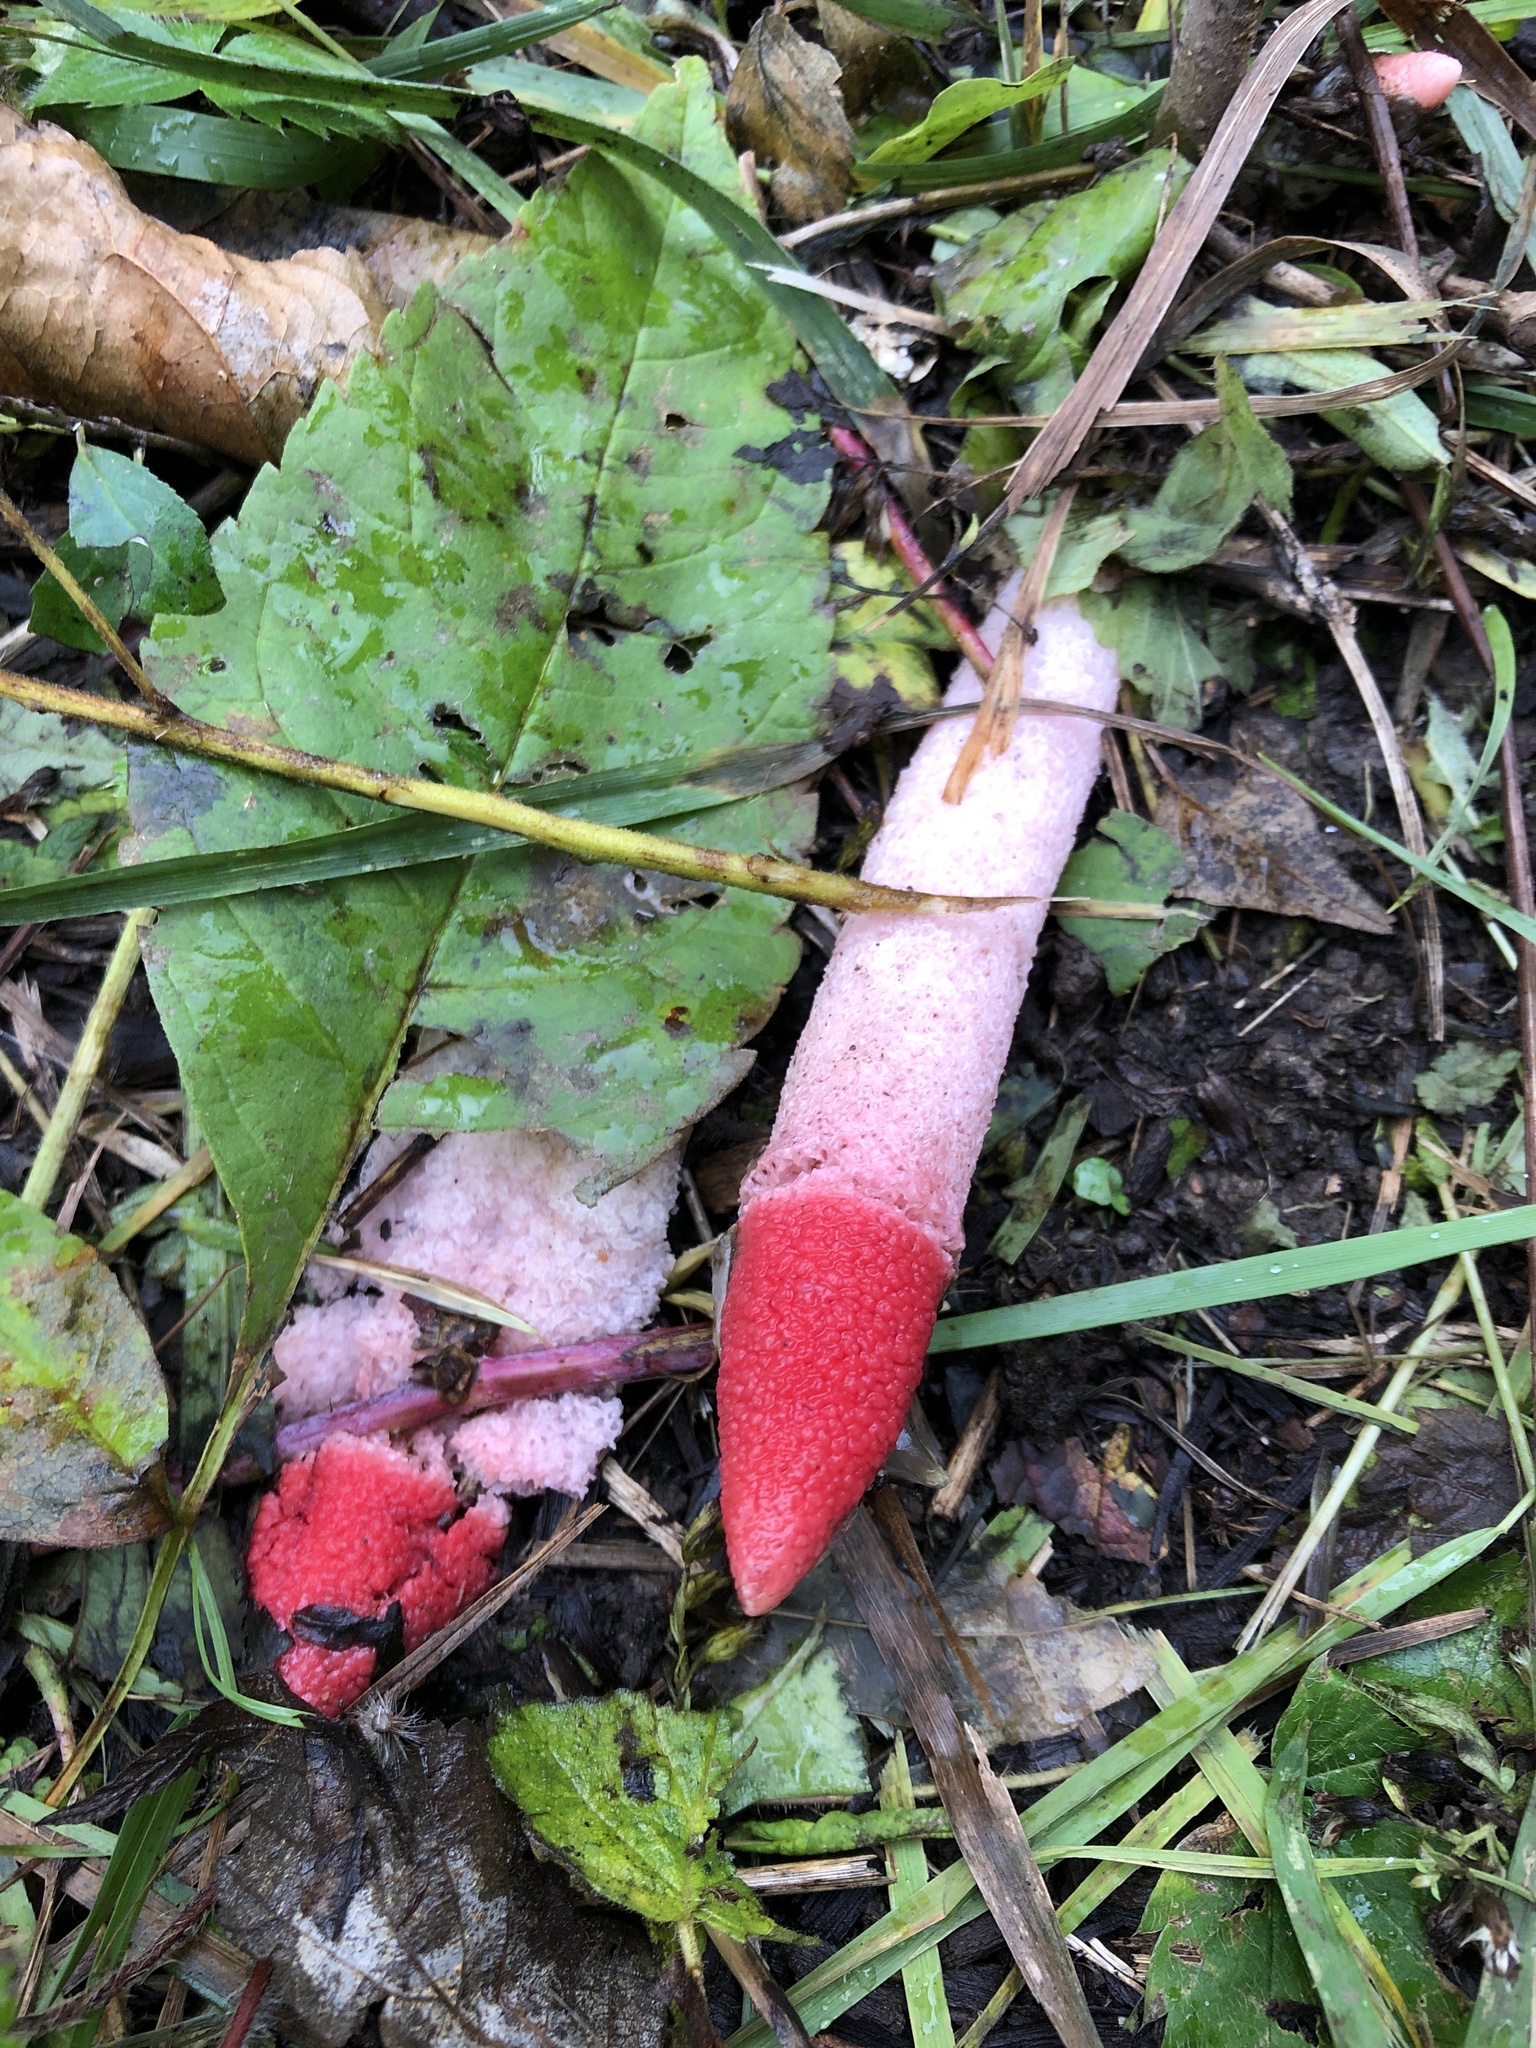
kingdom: Fungi
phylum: Basidiomycota
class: Agaricomycetes
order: Phallales
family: Phallaceae
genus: Mutinus
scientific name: Mutinus ravenelii
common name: Red stinkhorn
